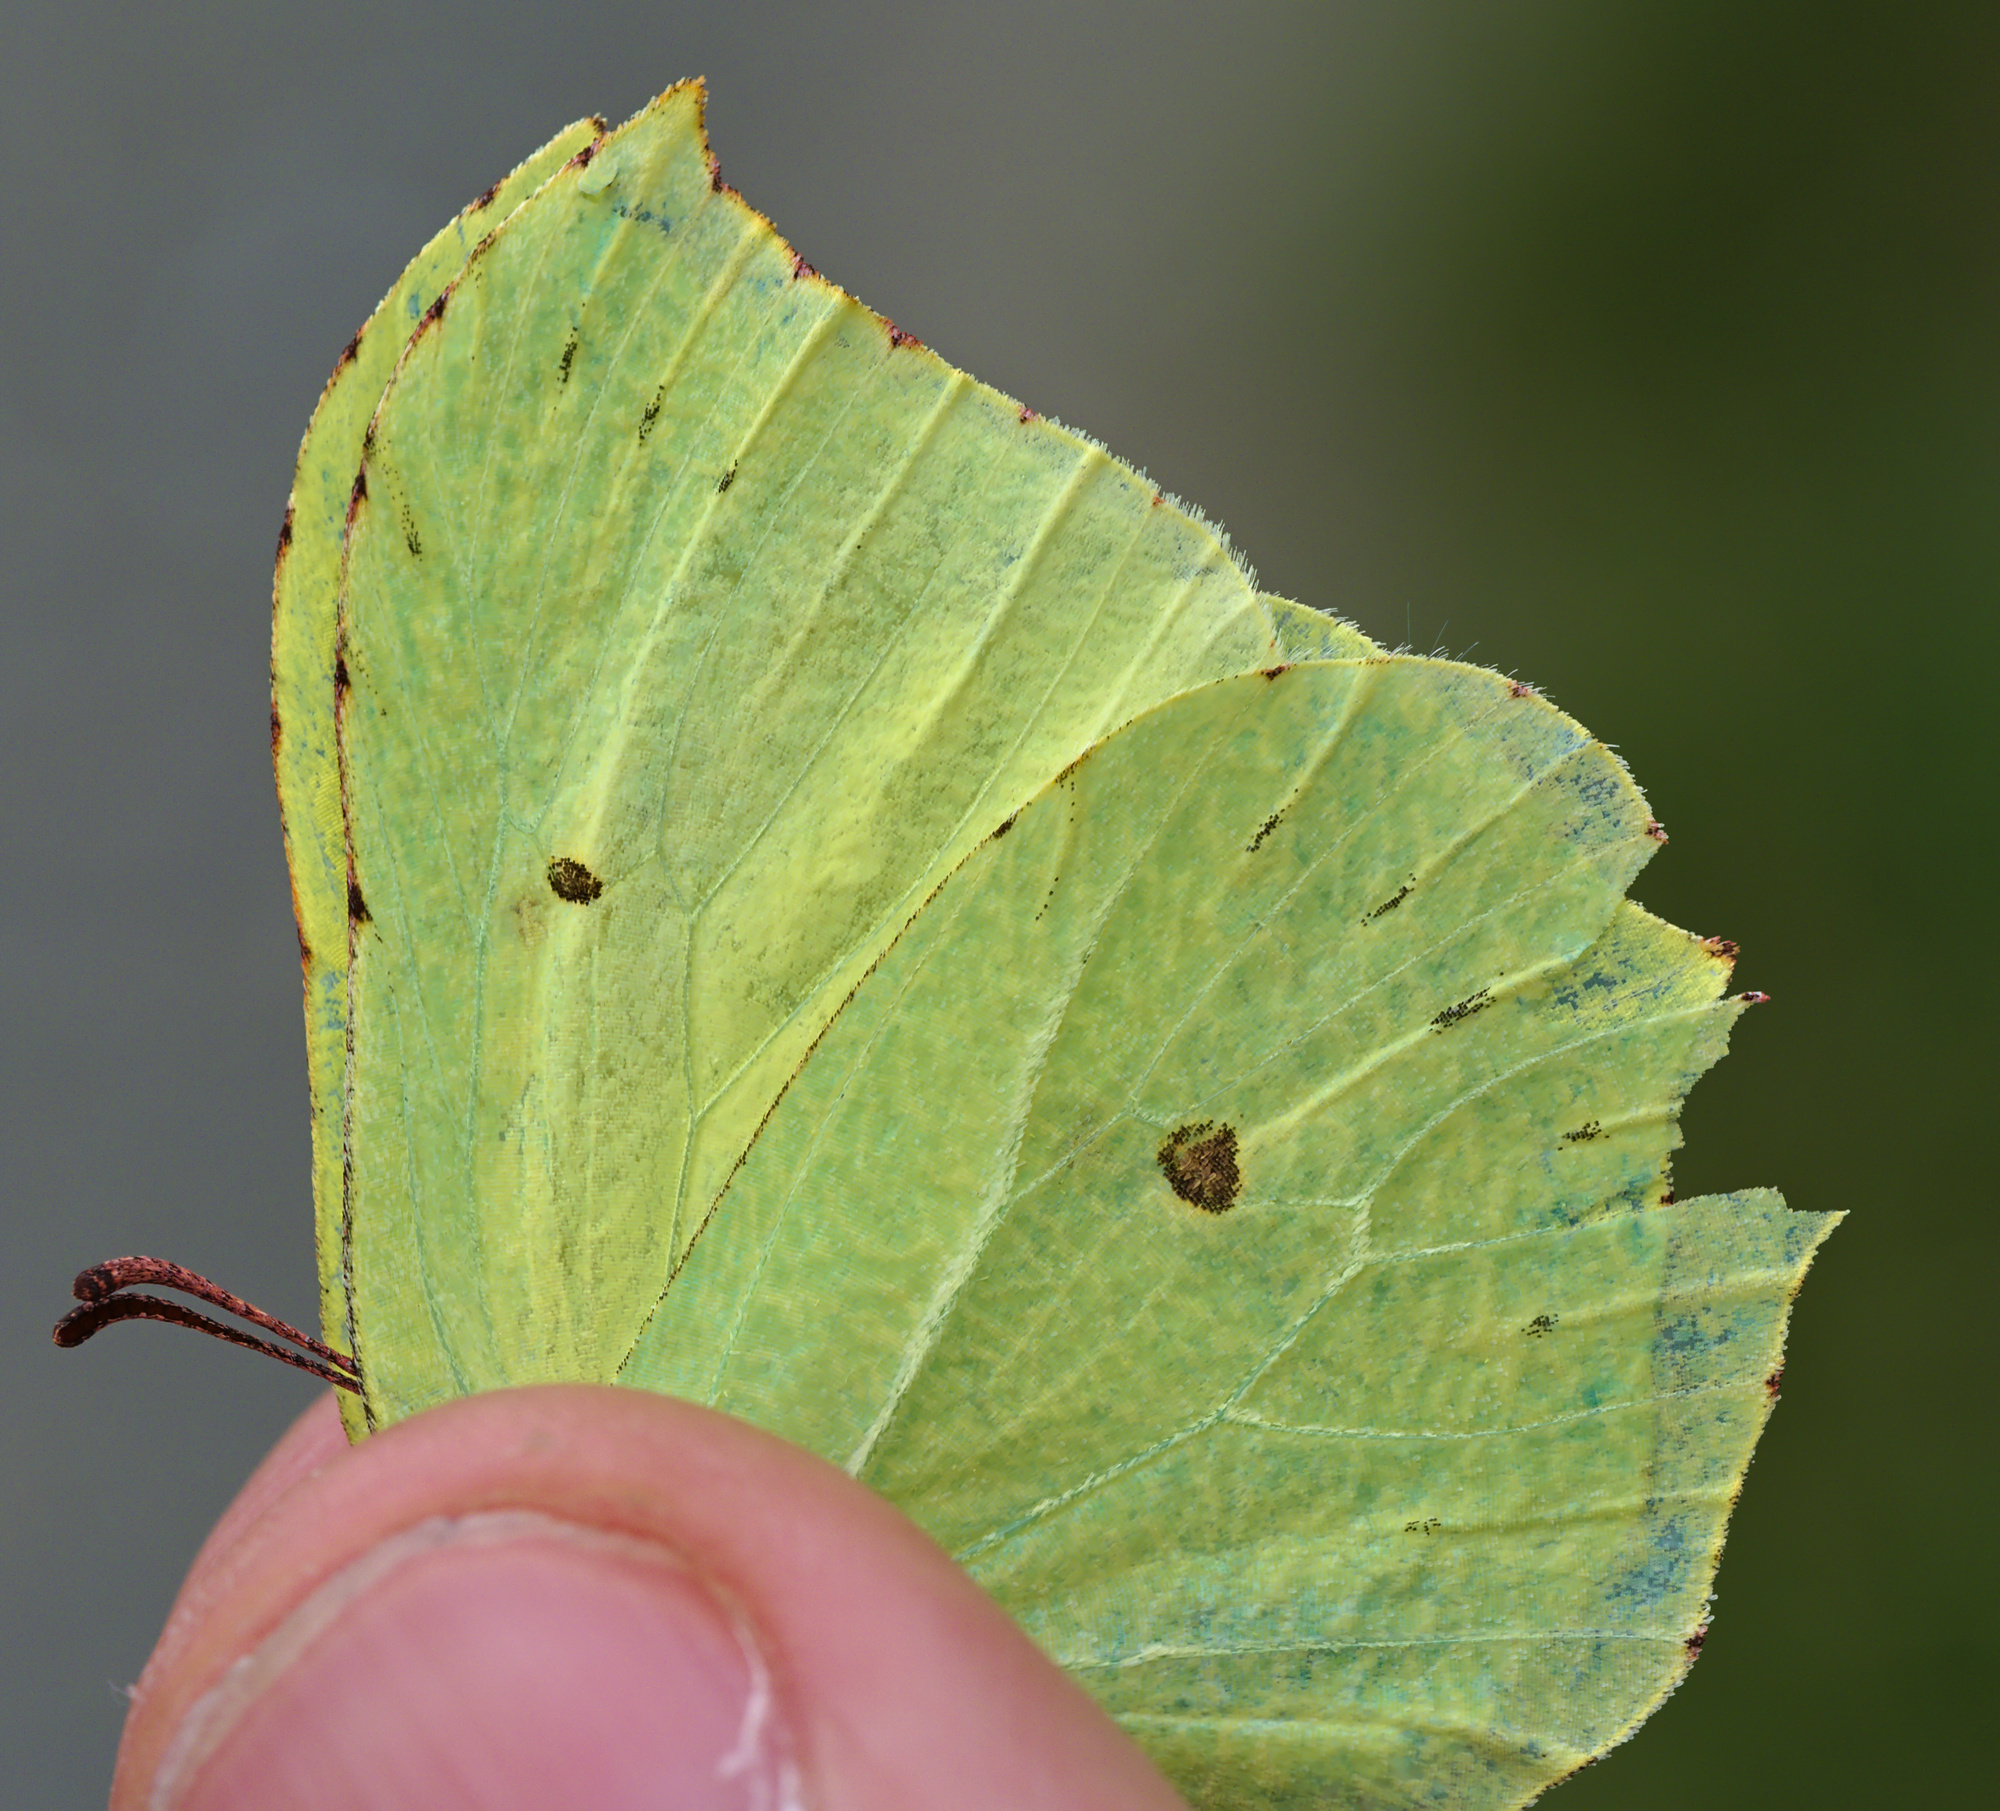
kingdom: Animalia
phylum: Arthropoda
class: Insecta
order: Lepidoptera
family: Pieridae
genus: Gonepteryx
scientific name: Gonepteryx rhamni
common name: Brimstone
